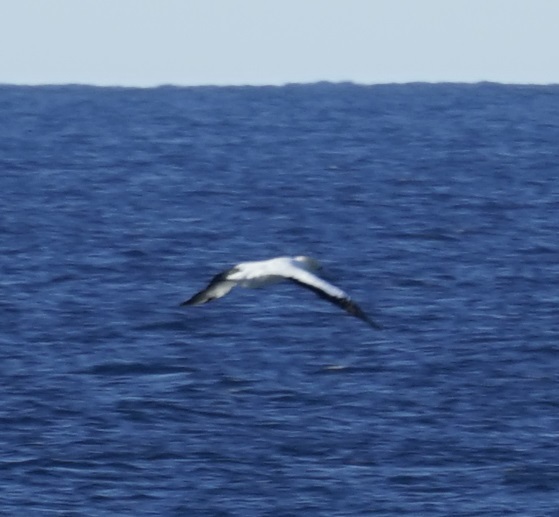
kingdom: Animalia
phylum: Chordata
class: Aves
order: Suliformes
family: Sulidae
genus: Morus
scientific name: Morus serrator
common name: Australasian gannet
